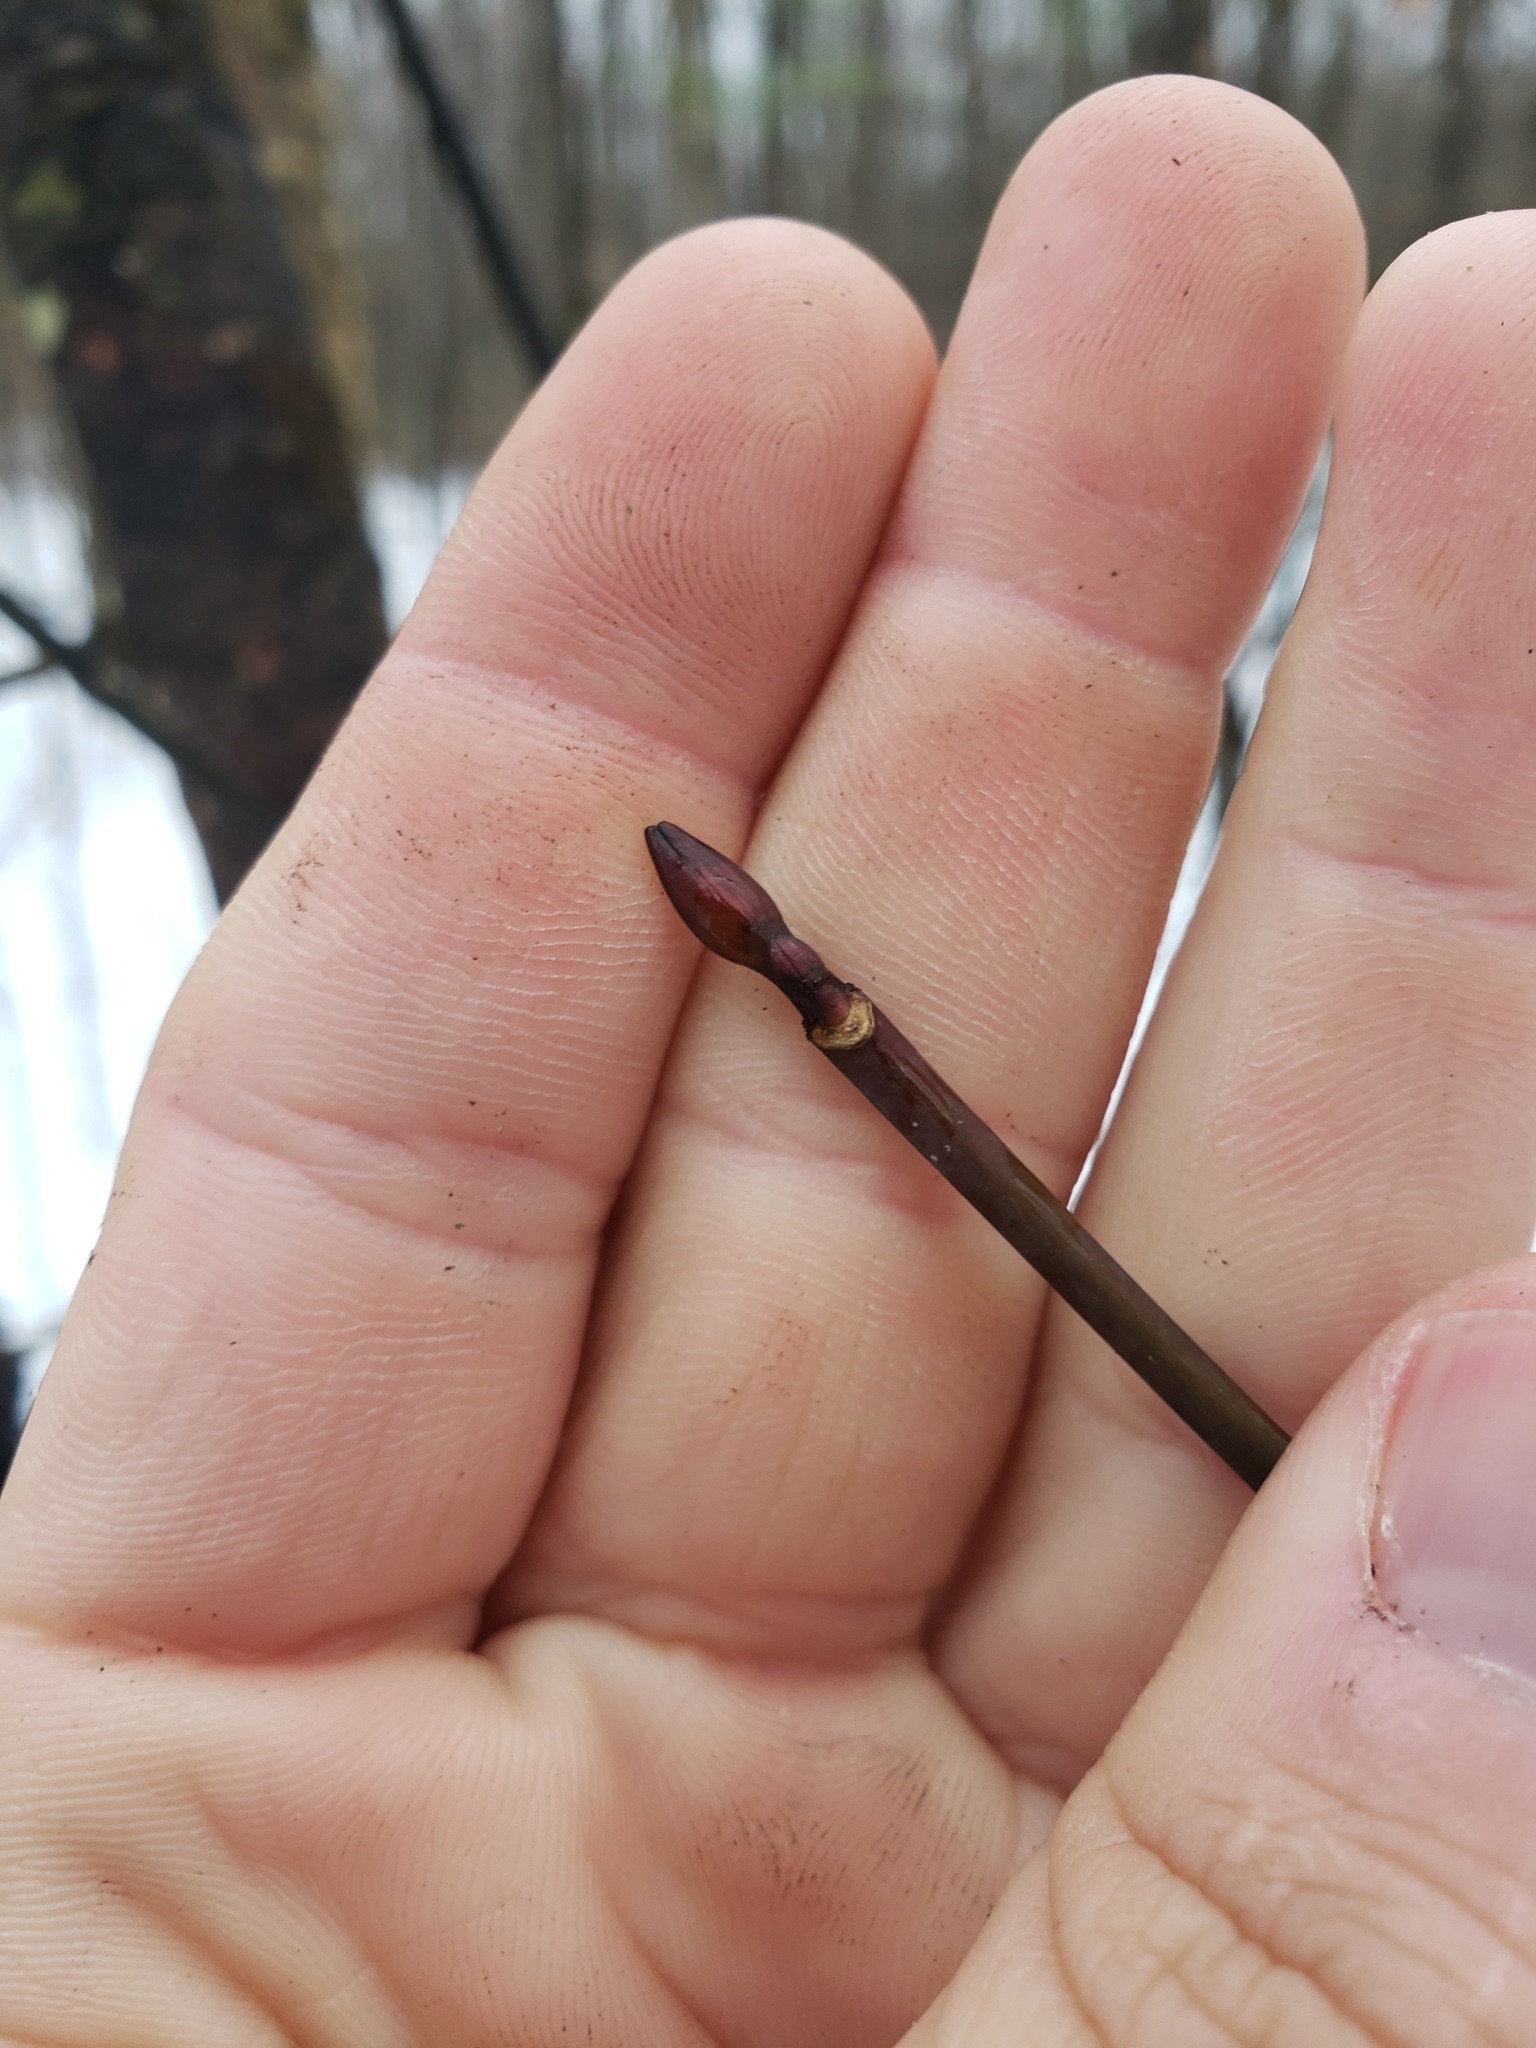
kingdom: Plantae
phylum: Tracheophyta
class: Magnoliopsida
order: Sapindales
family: Sapindaceae
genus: Acer
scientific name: Acer pensylvanicum
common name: Moosewood
